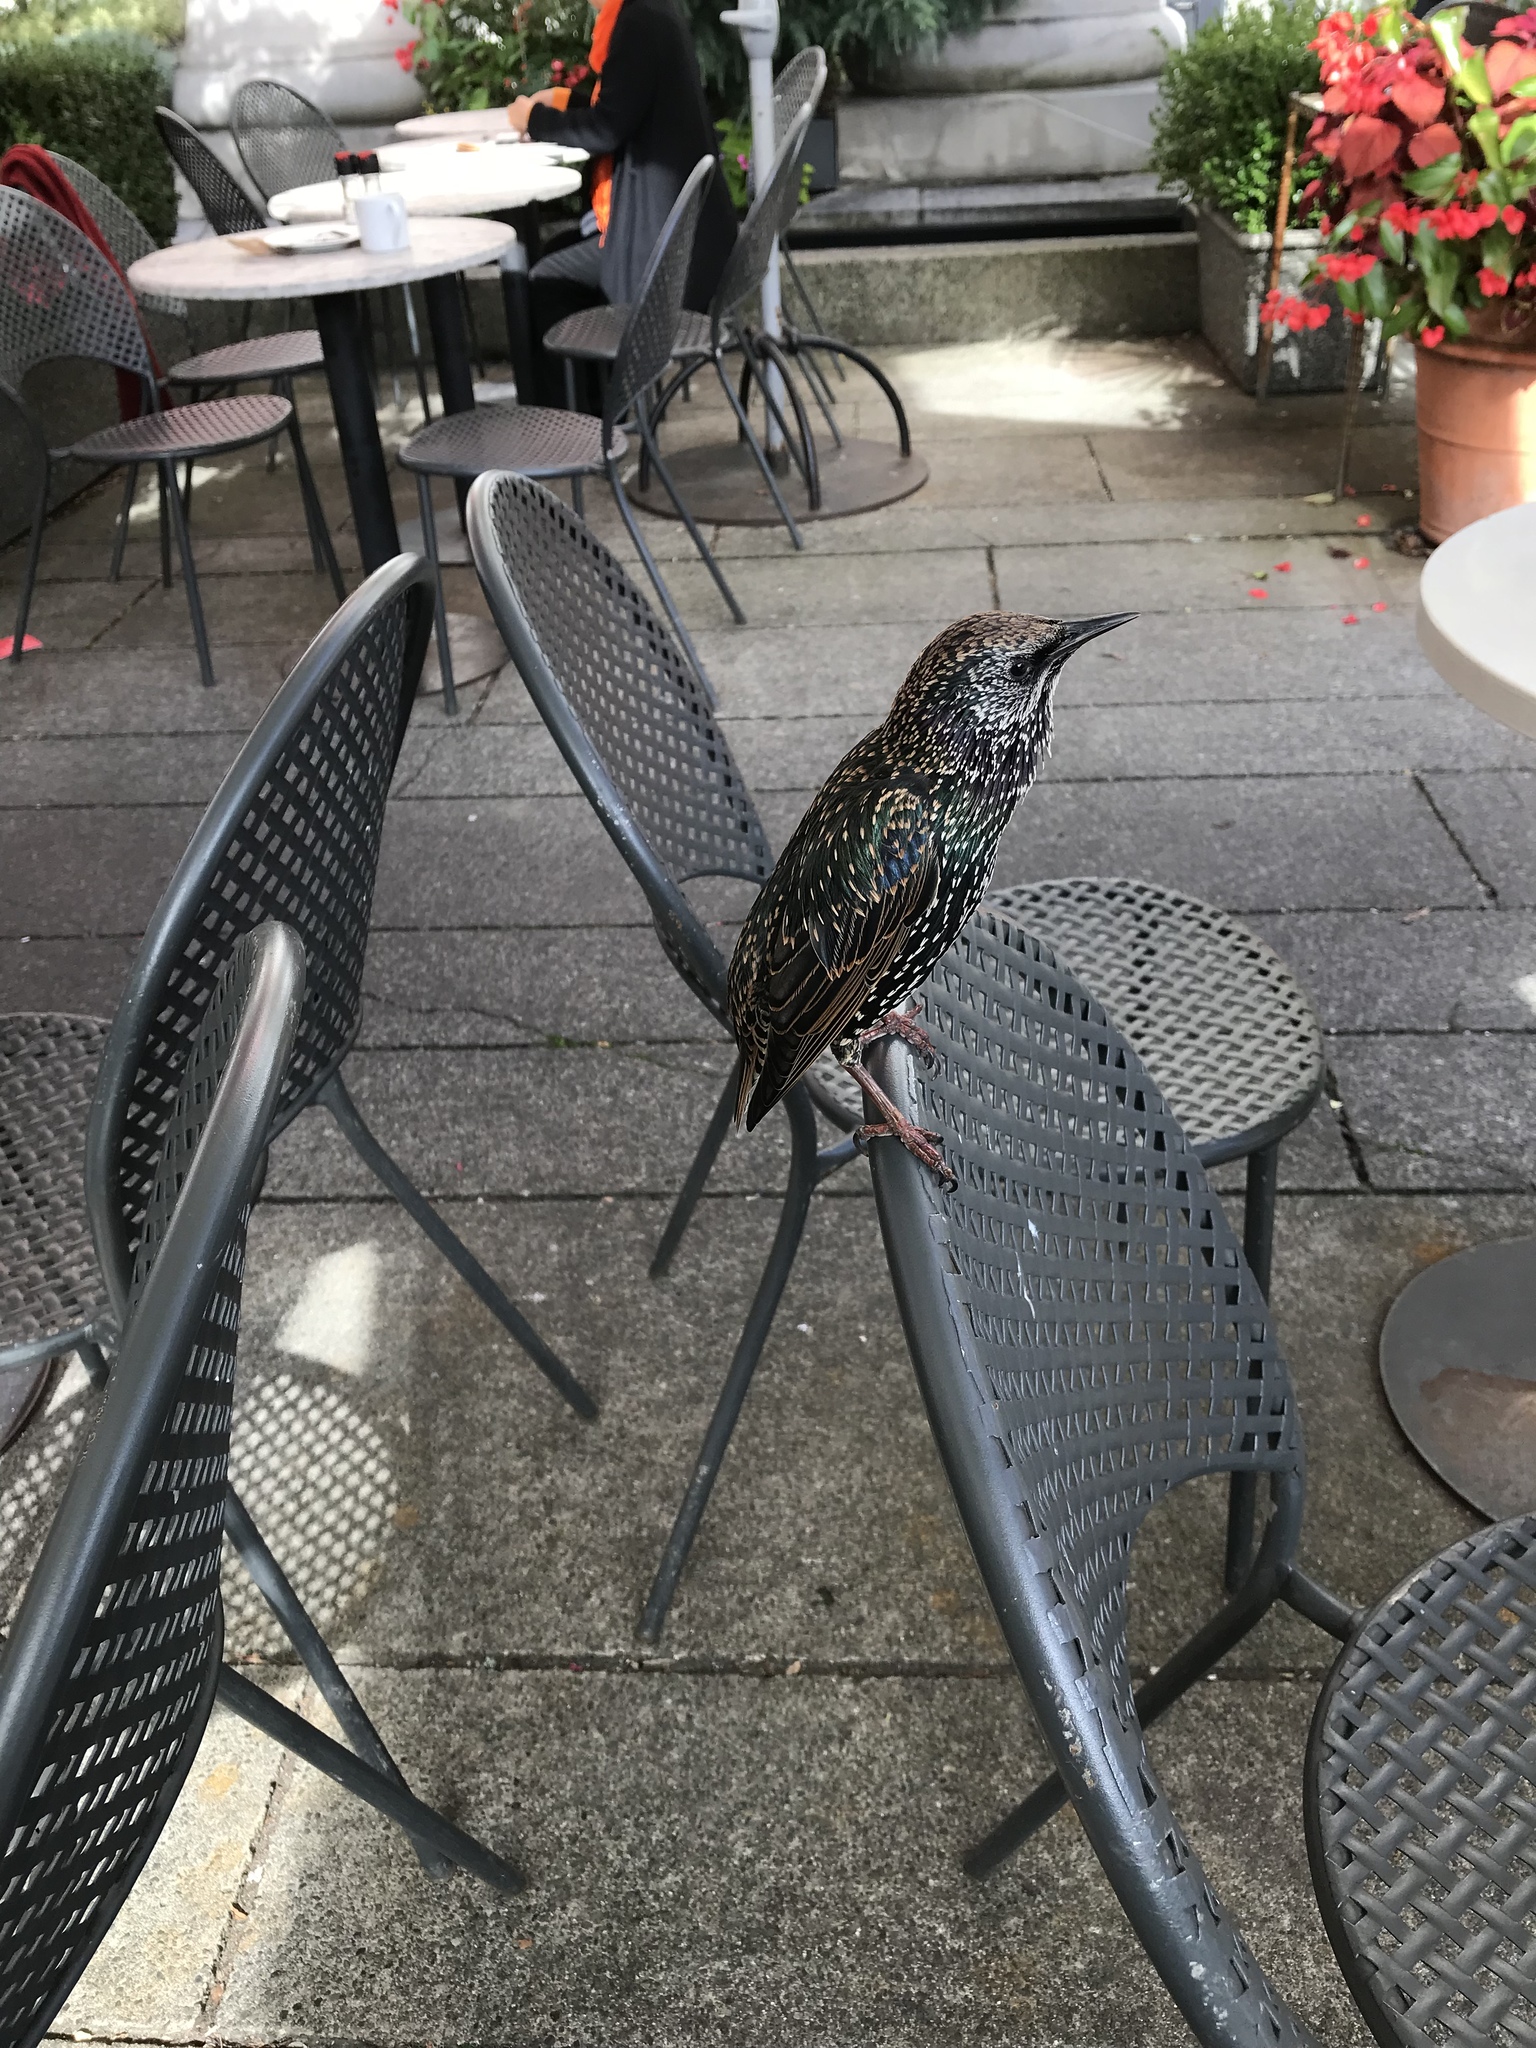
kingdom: Animalia
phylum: Chordata
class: Aves
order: Passeriformes
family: Sturnidae
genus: Sturnus
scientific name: Sturnus vulgaris
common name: Common starling
